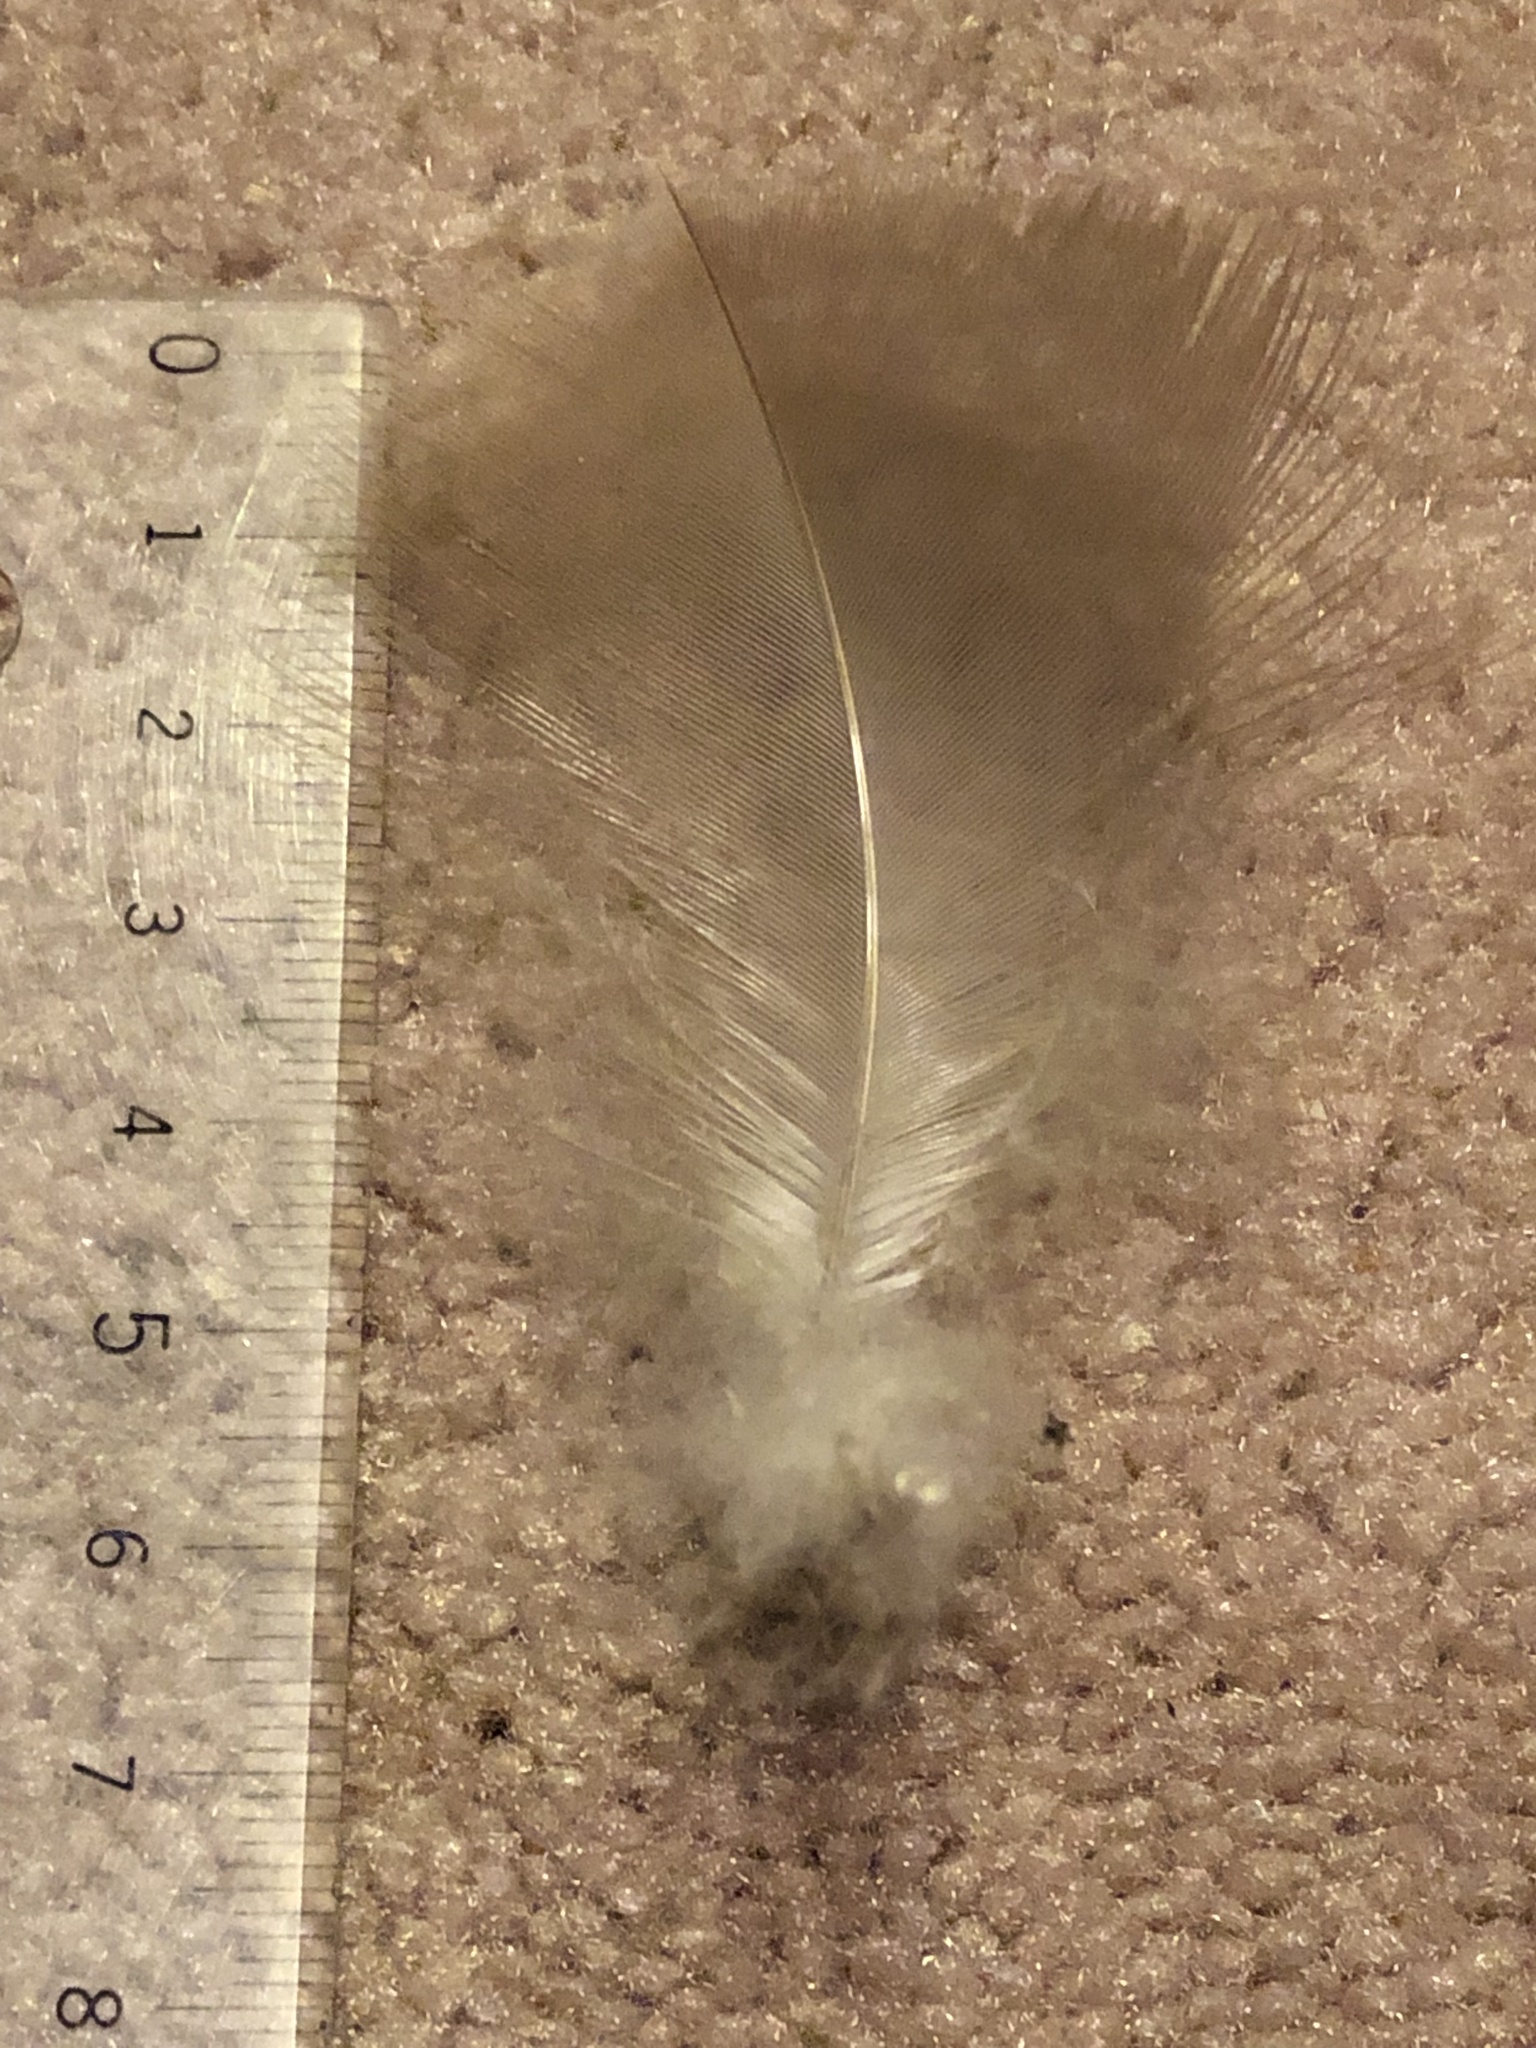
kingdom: Animalia
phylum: Chordata
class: Aves
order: Anseriformes
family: Anatidae
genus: Branta
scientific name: Branta canadensis
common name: Canada goose
